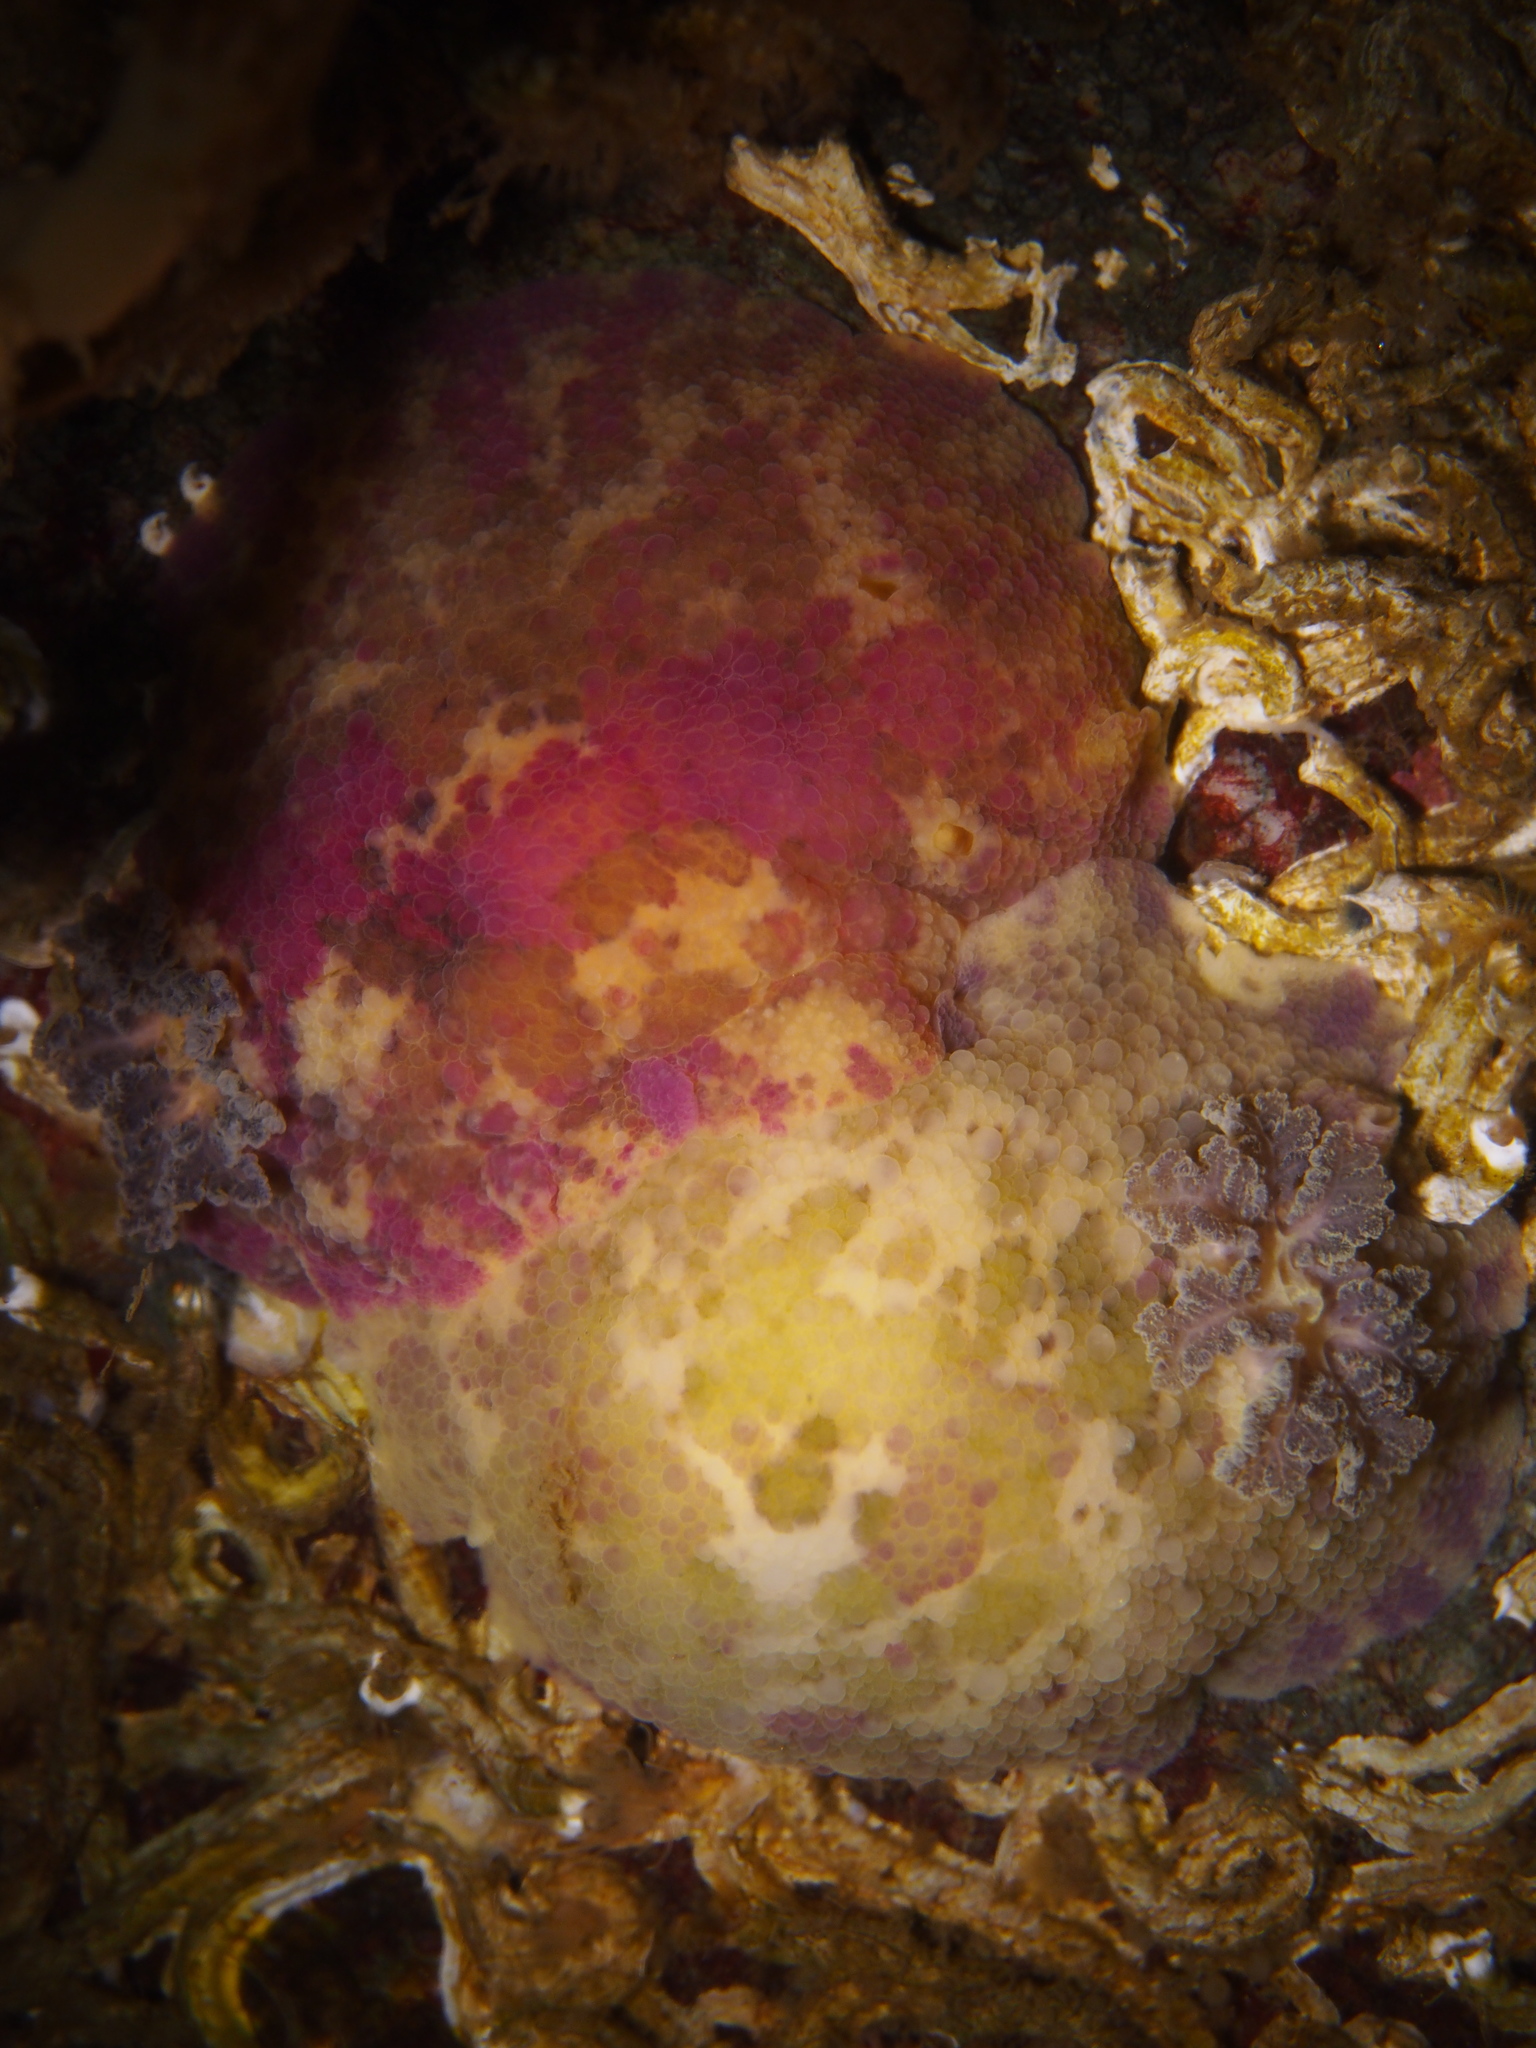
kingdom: Animalia
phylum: Mollusca
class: Gastropoda
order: Nudibranchia
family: Dorididae
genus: Doris
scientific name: Doris pseudoargus
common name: Sea lemon
